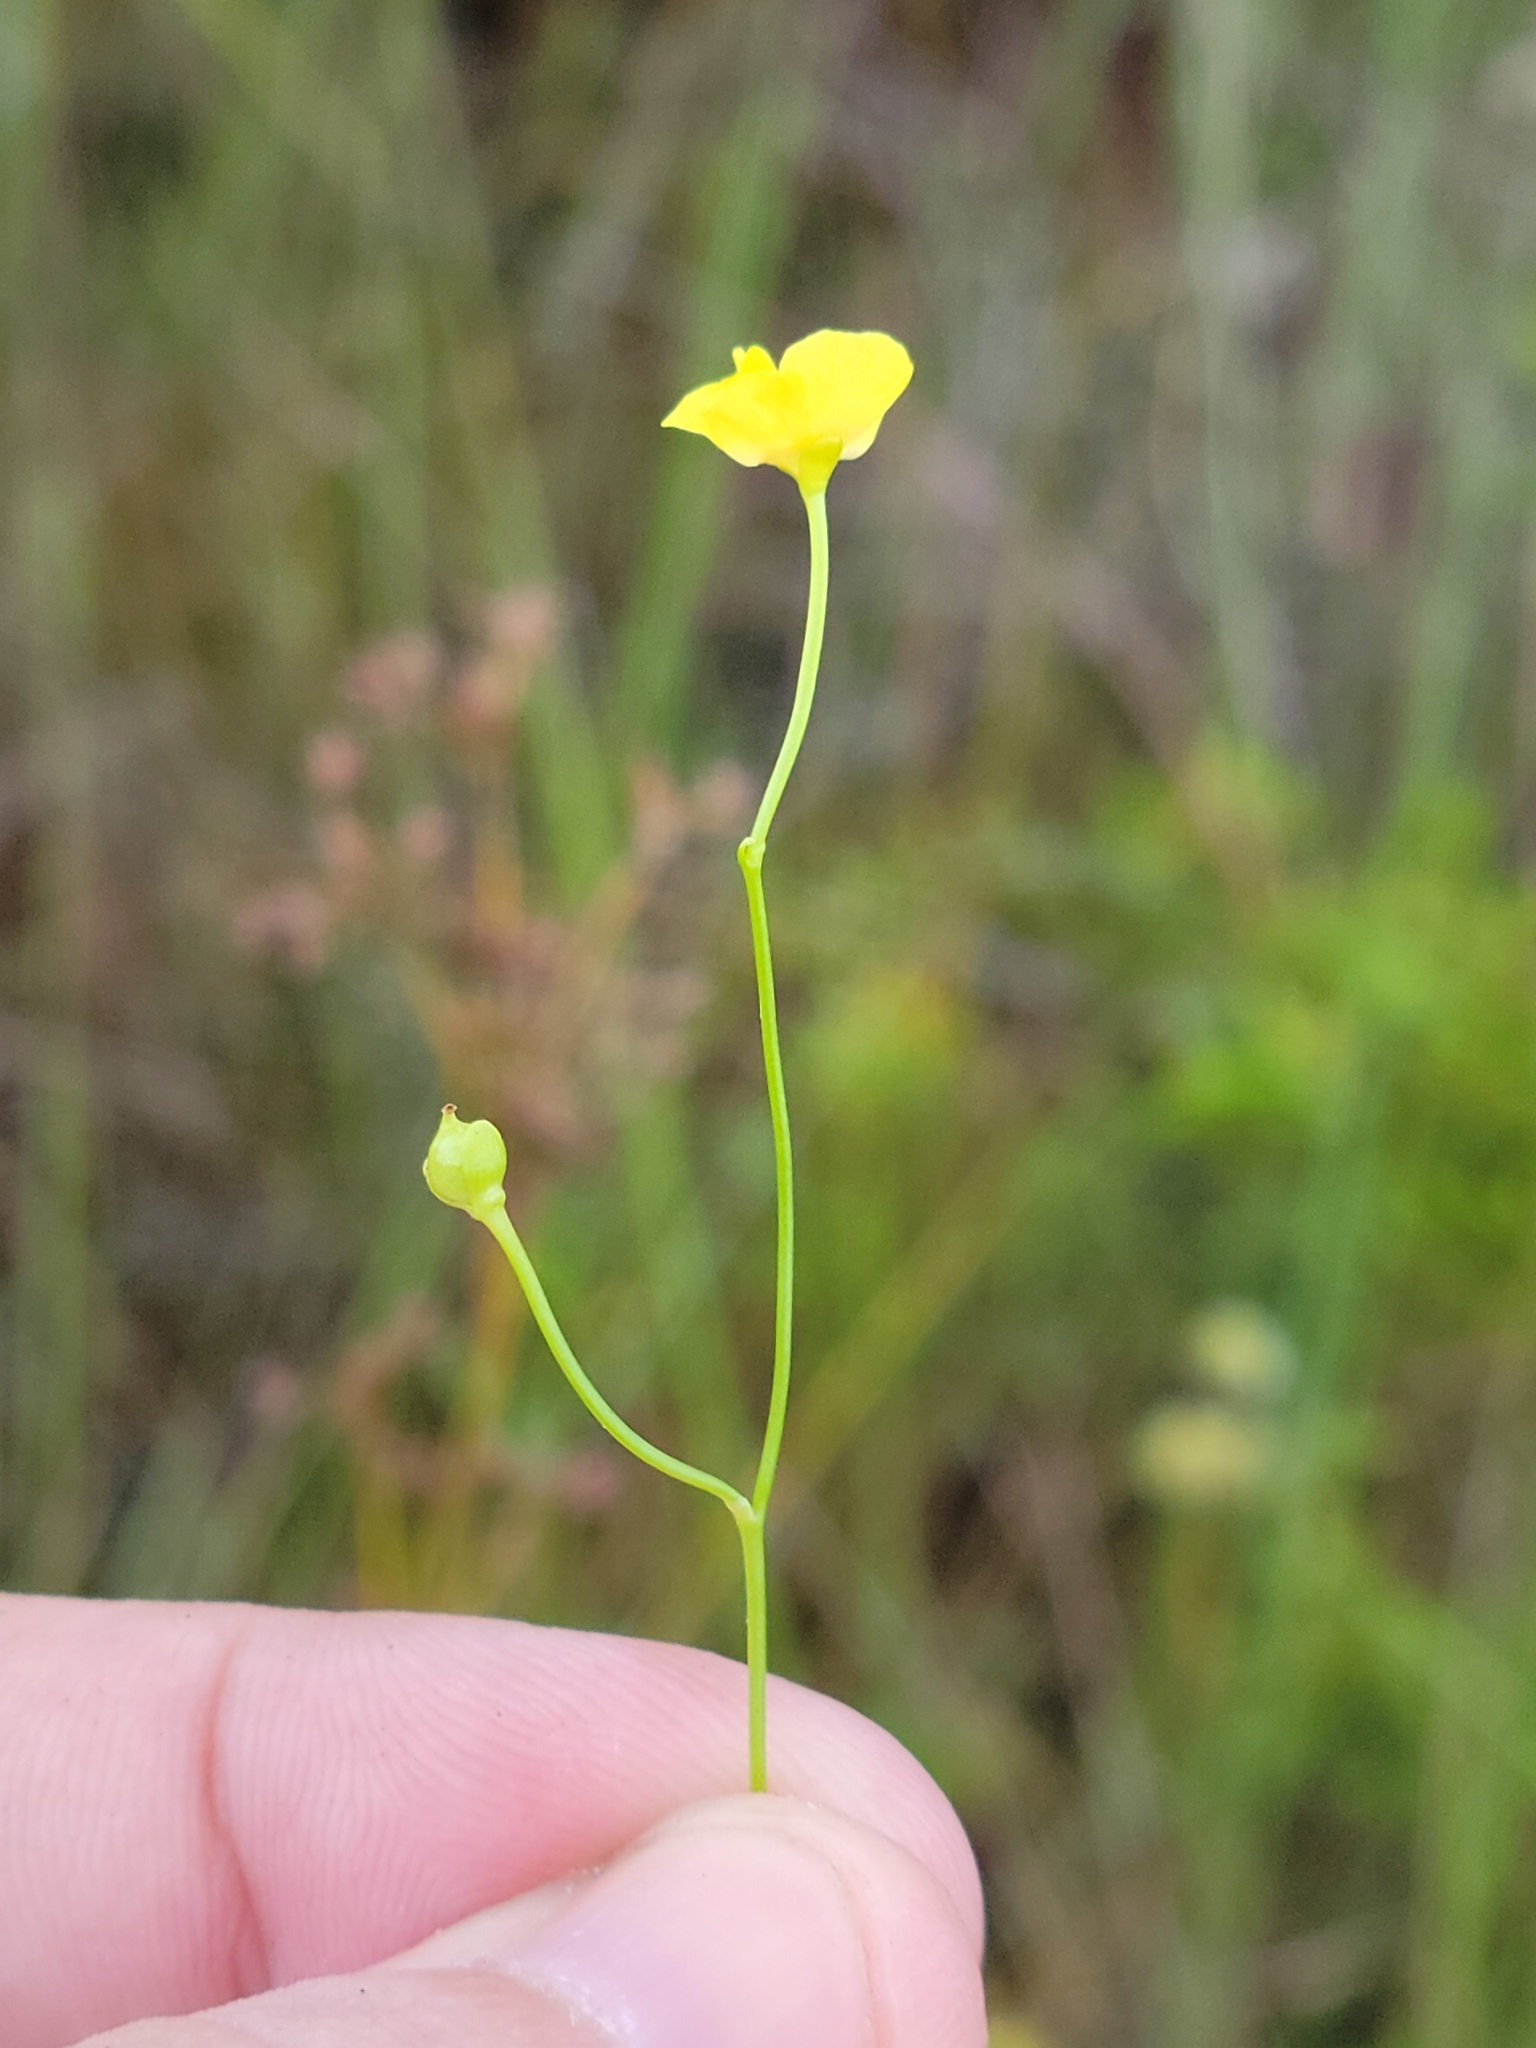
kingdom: Plantae
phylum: Tracheophyta
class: Magnoliopsida
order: Lamiales
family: Lentibulariaceae
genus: Utricularia
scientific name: Utricularia gibba
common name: Humped bladderwort
